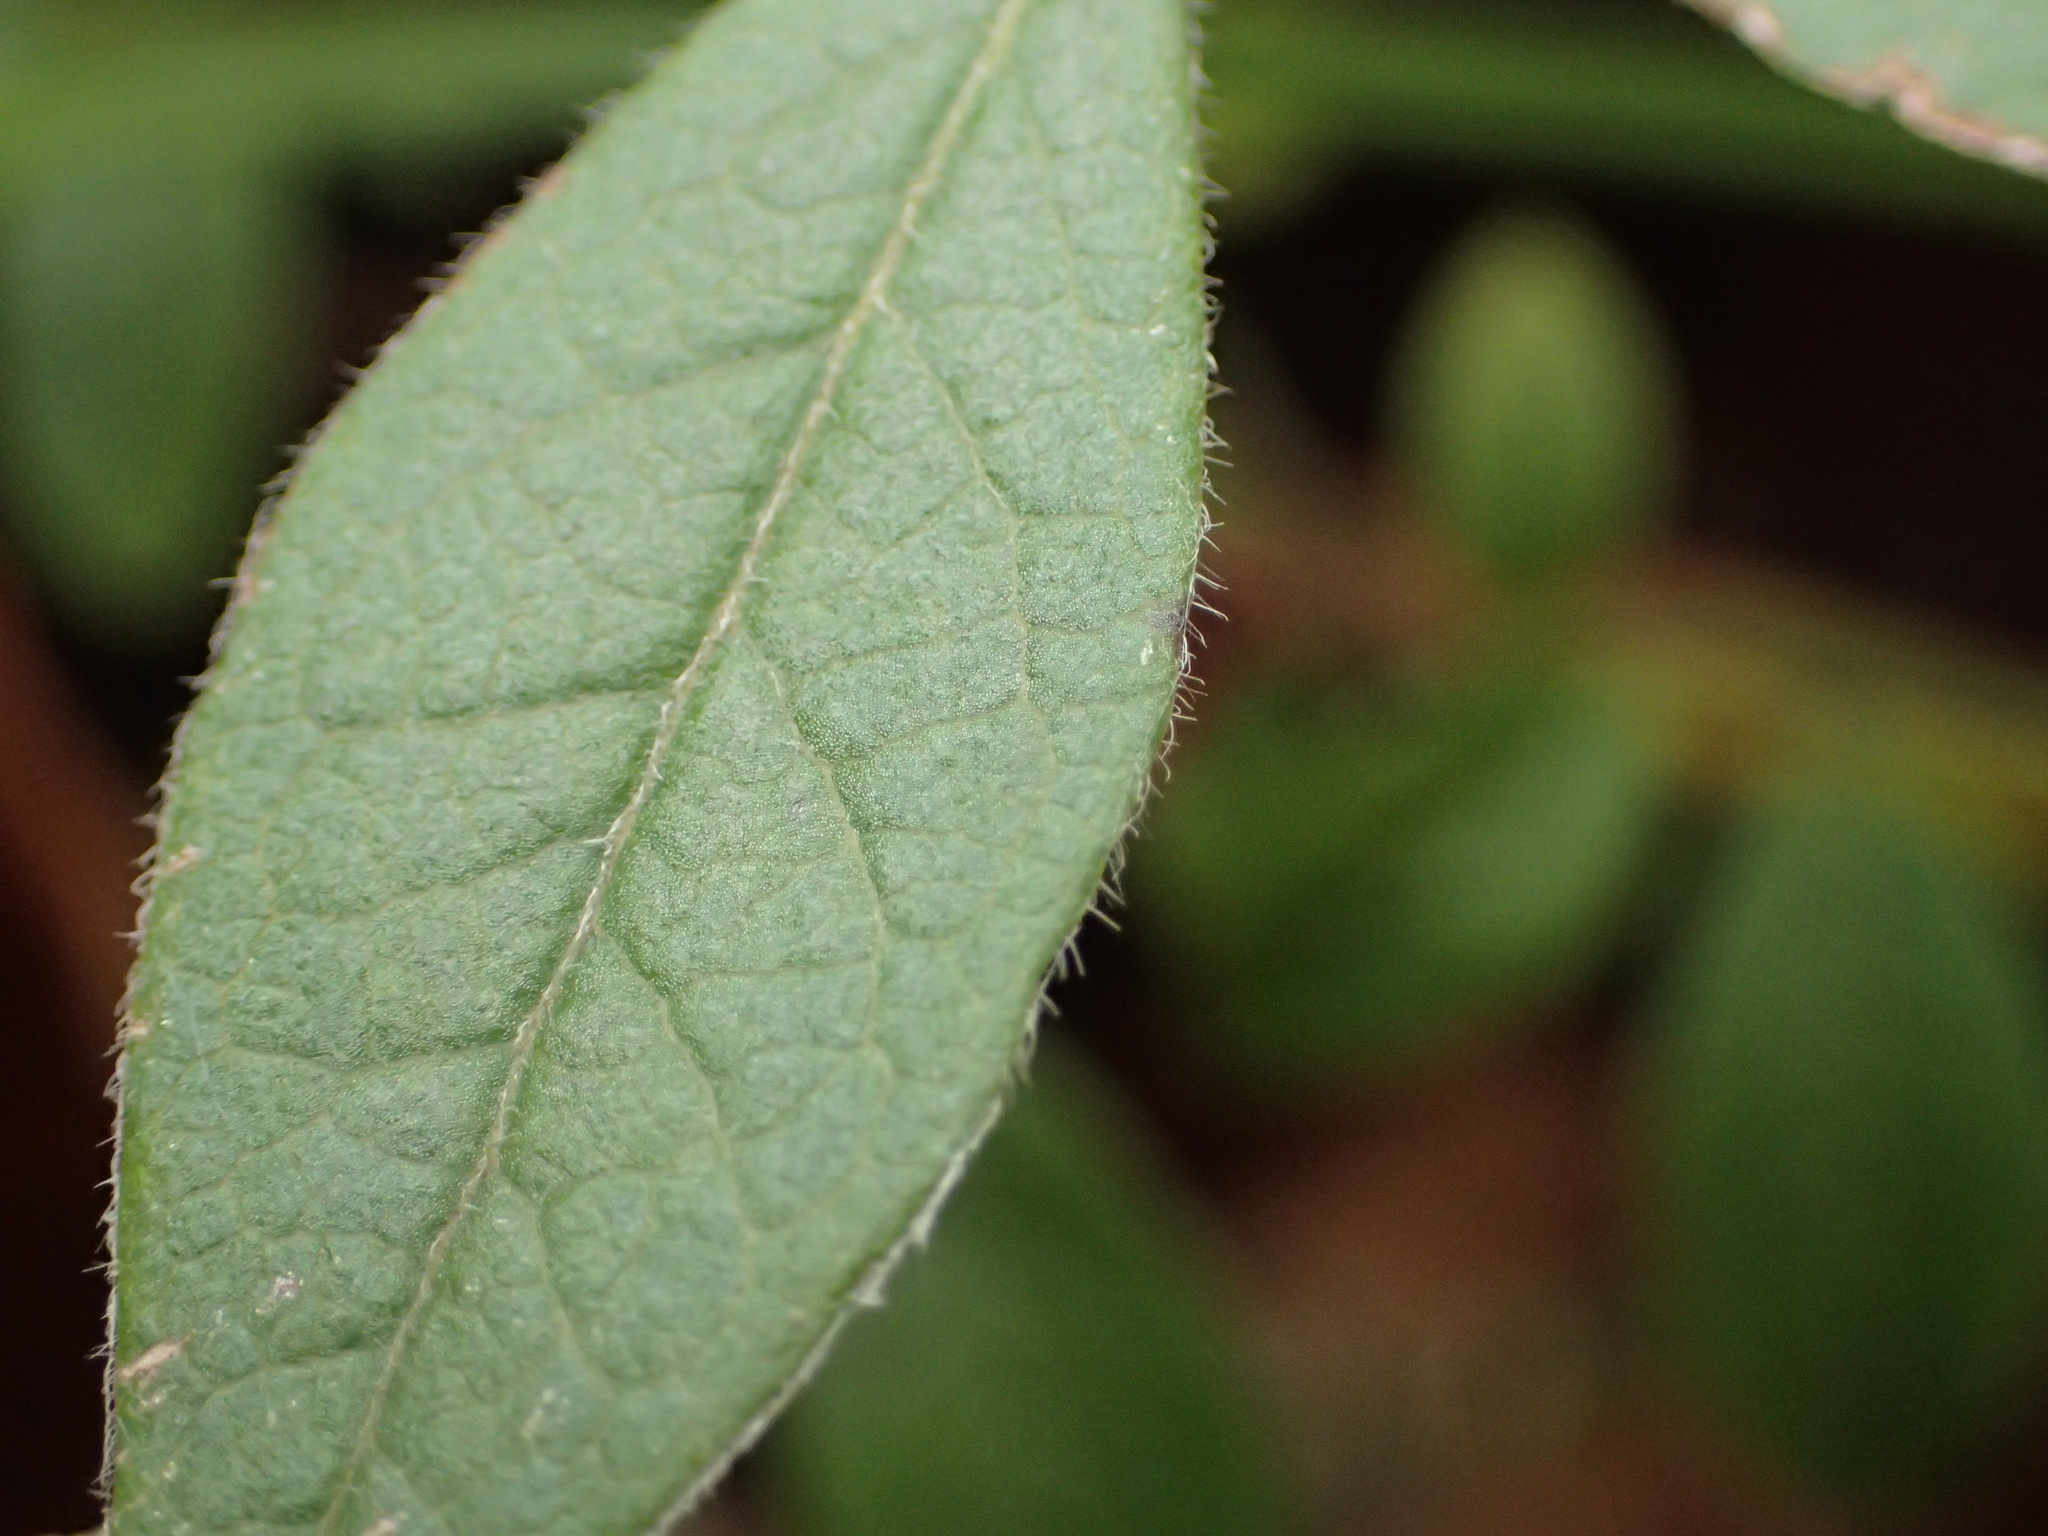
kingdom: Plantae
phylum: Tracheophyta
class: Magnoliopsida
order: Ericales
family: Ericaceae
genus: Vaccinium
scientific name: Vaccinium myrtilloides
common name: Canada blueberry
